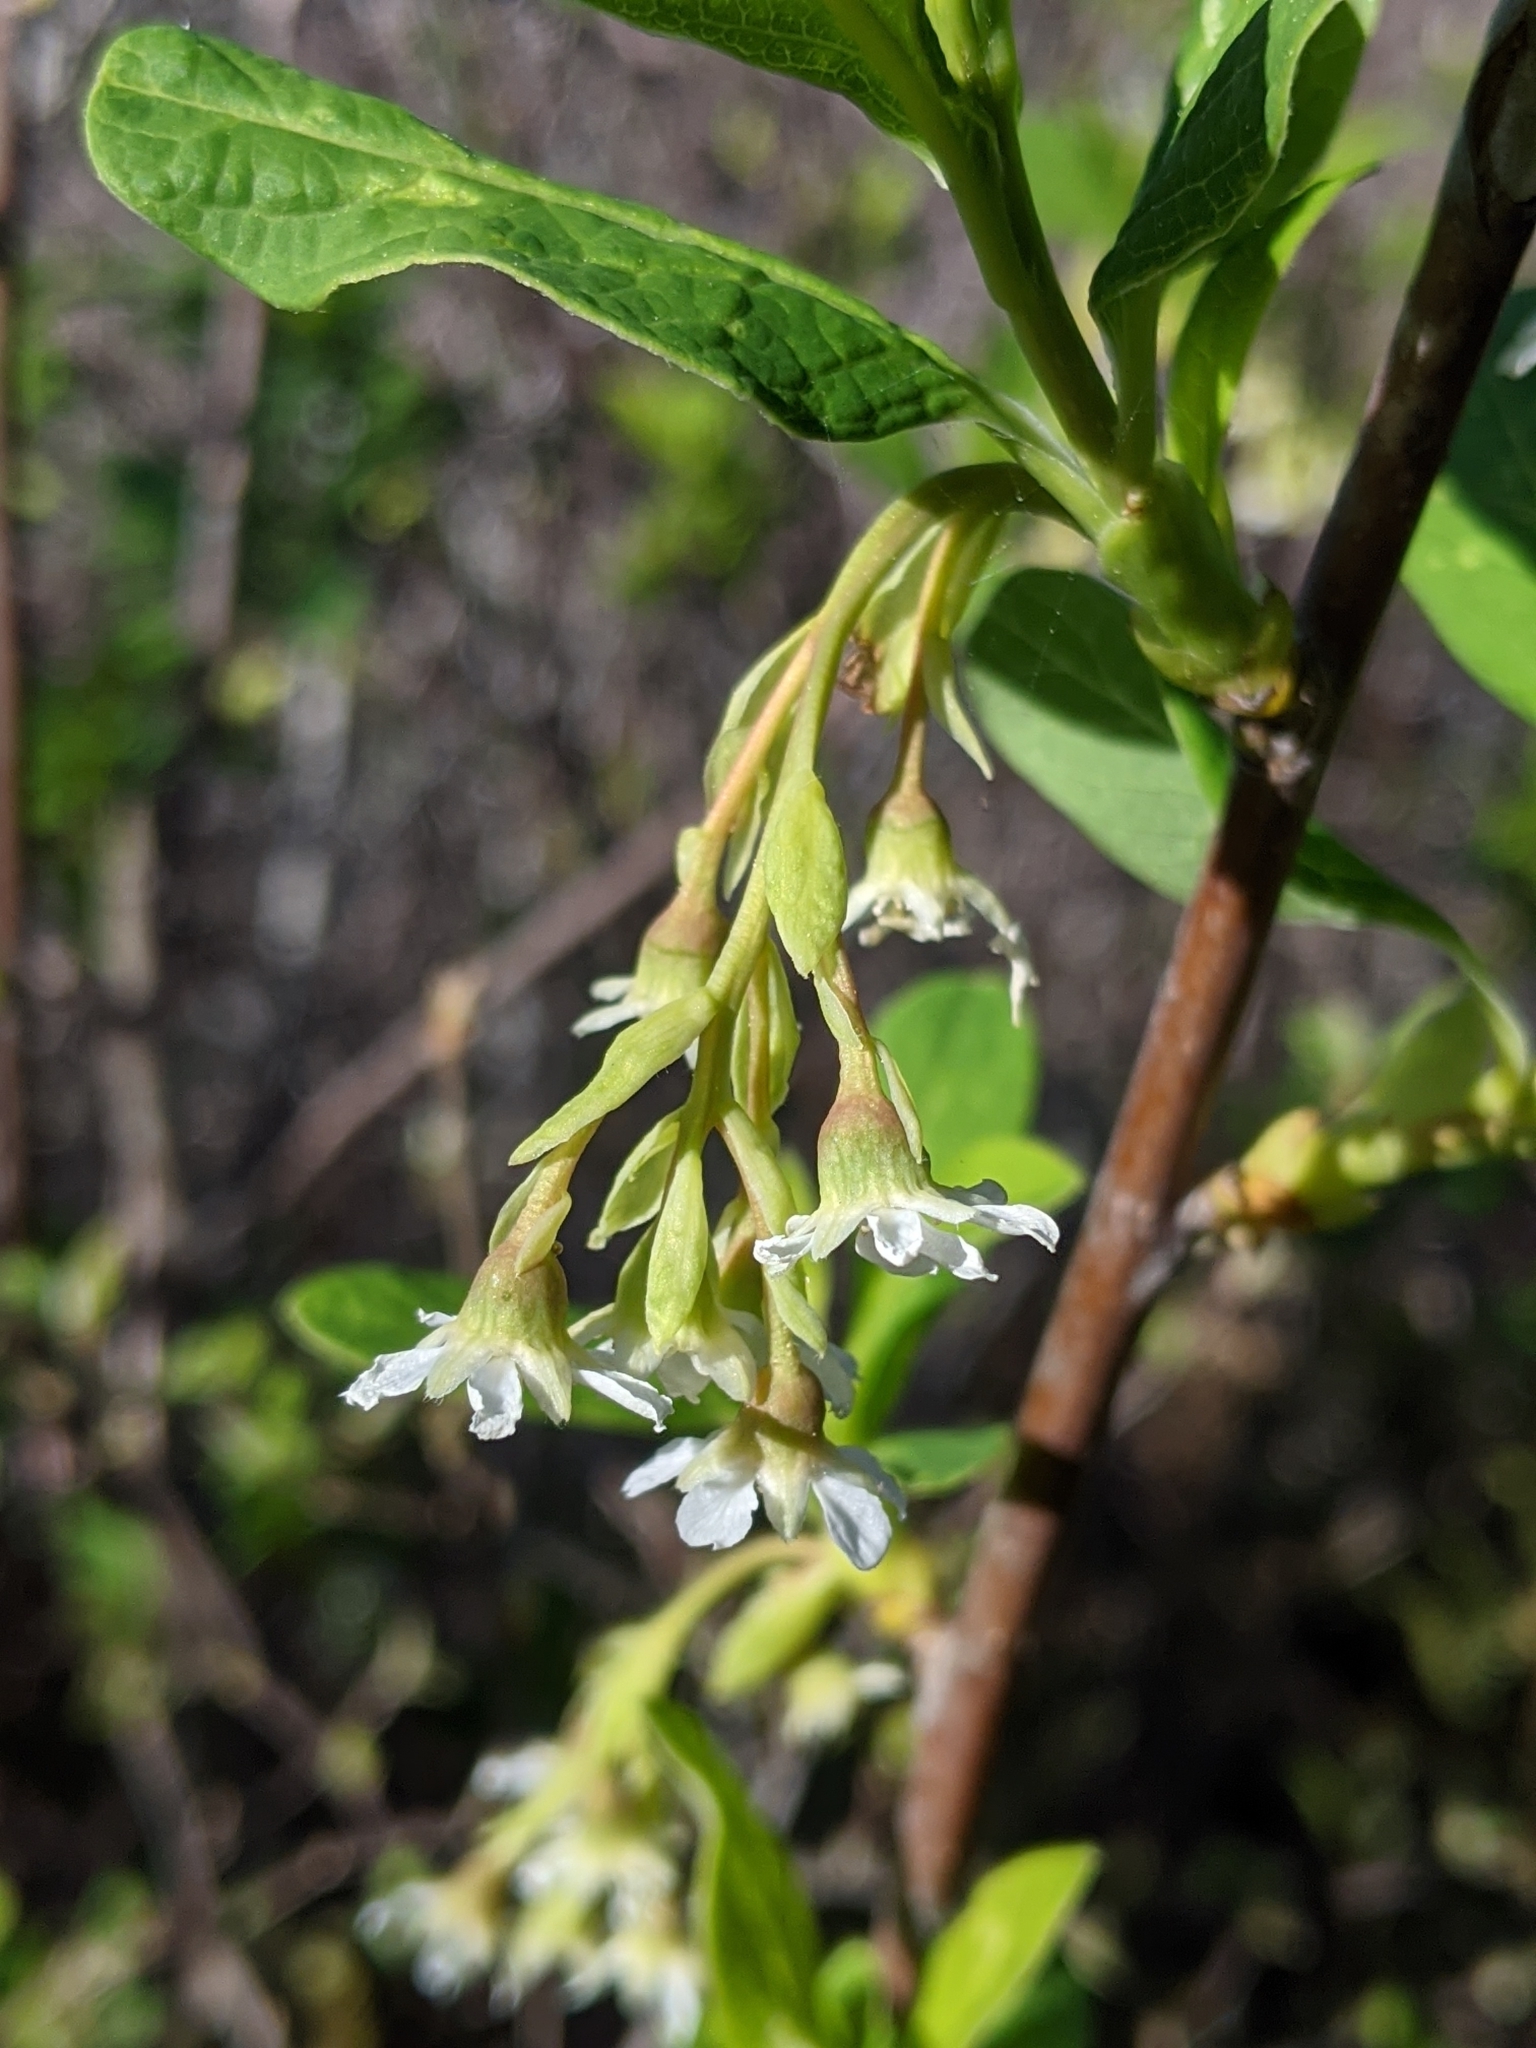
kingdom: Plantae
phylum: Tracheophyta
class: Magnoliopsida
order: Rosales
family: Rosaceae
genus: Oemleria
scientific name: Oemleria cerasiformis
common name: Osoberry
